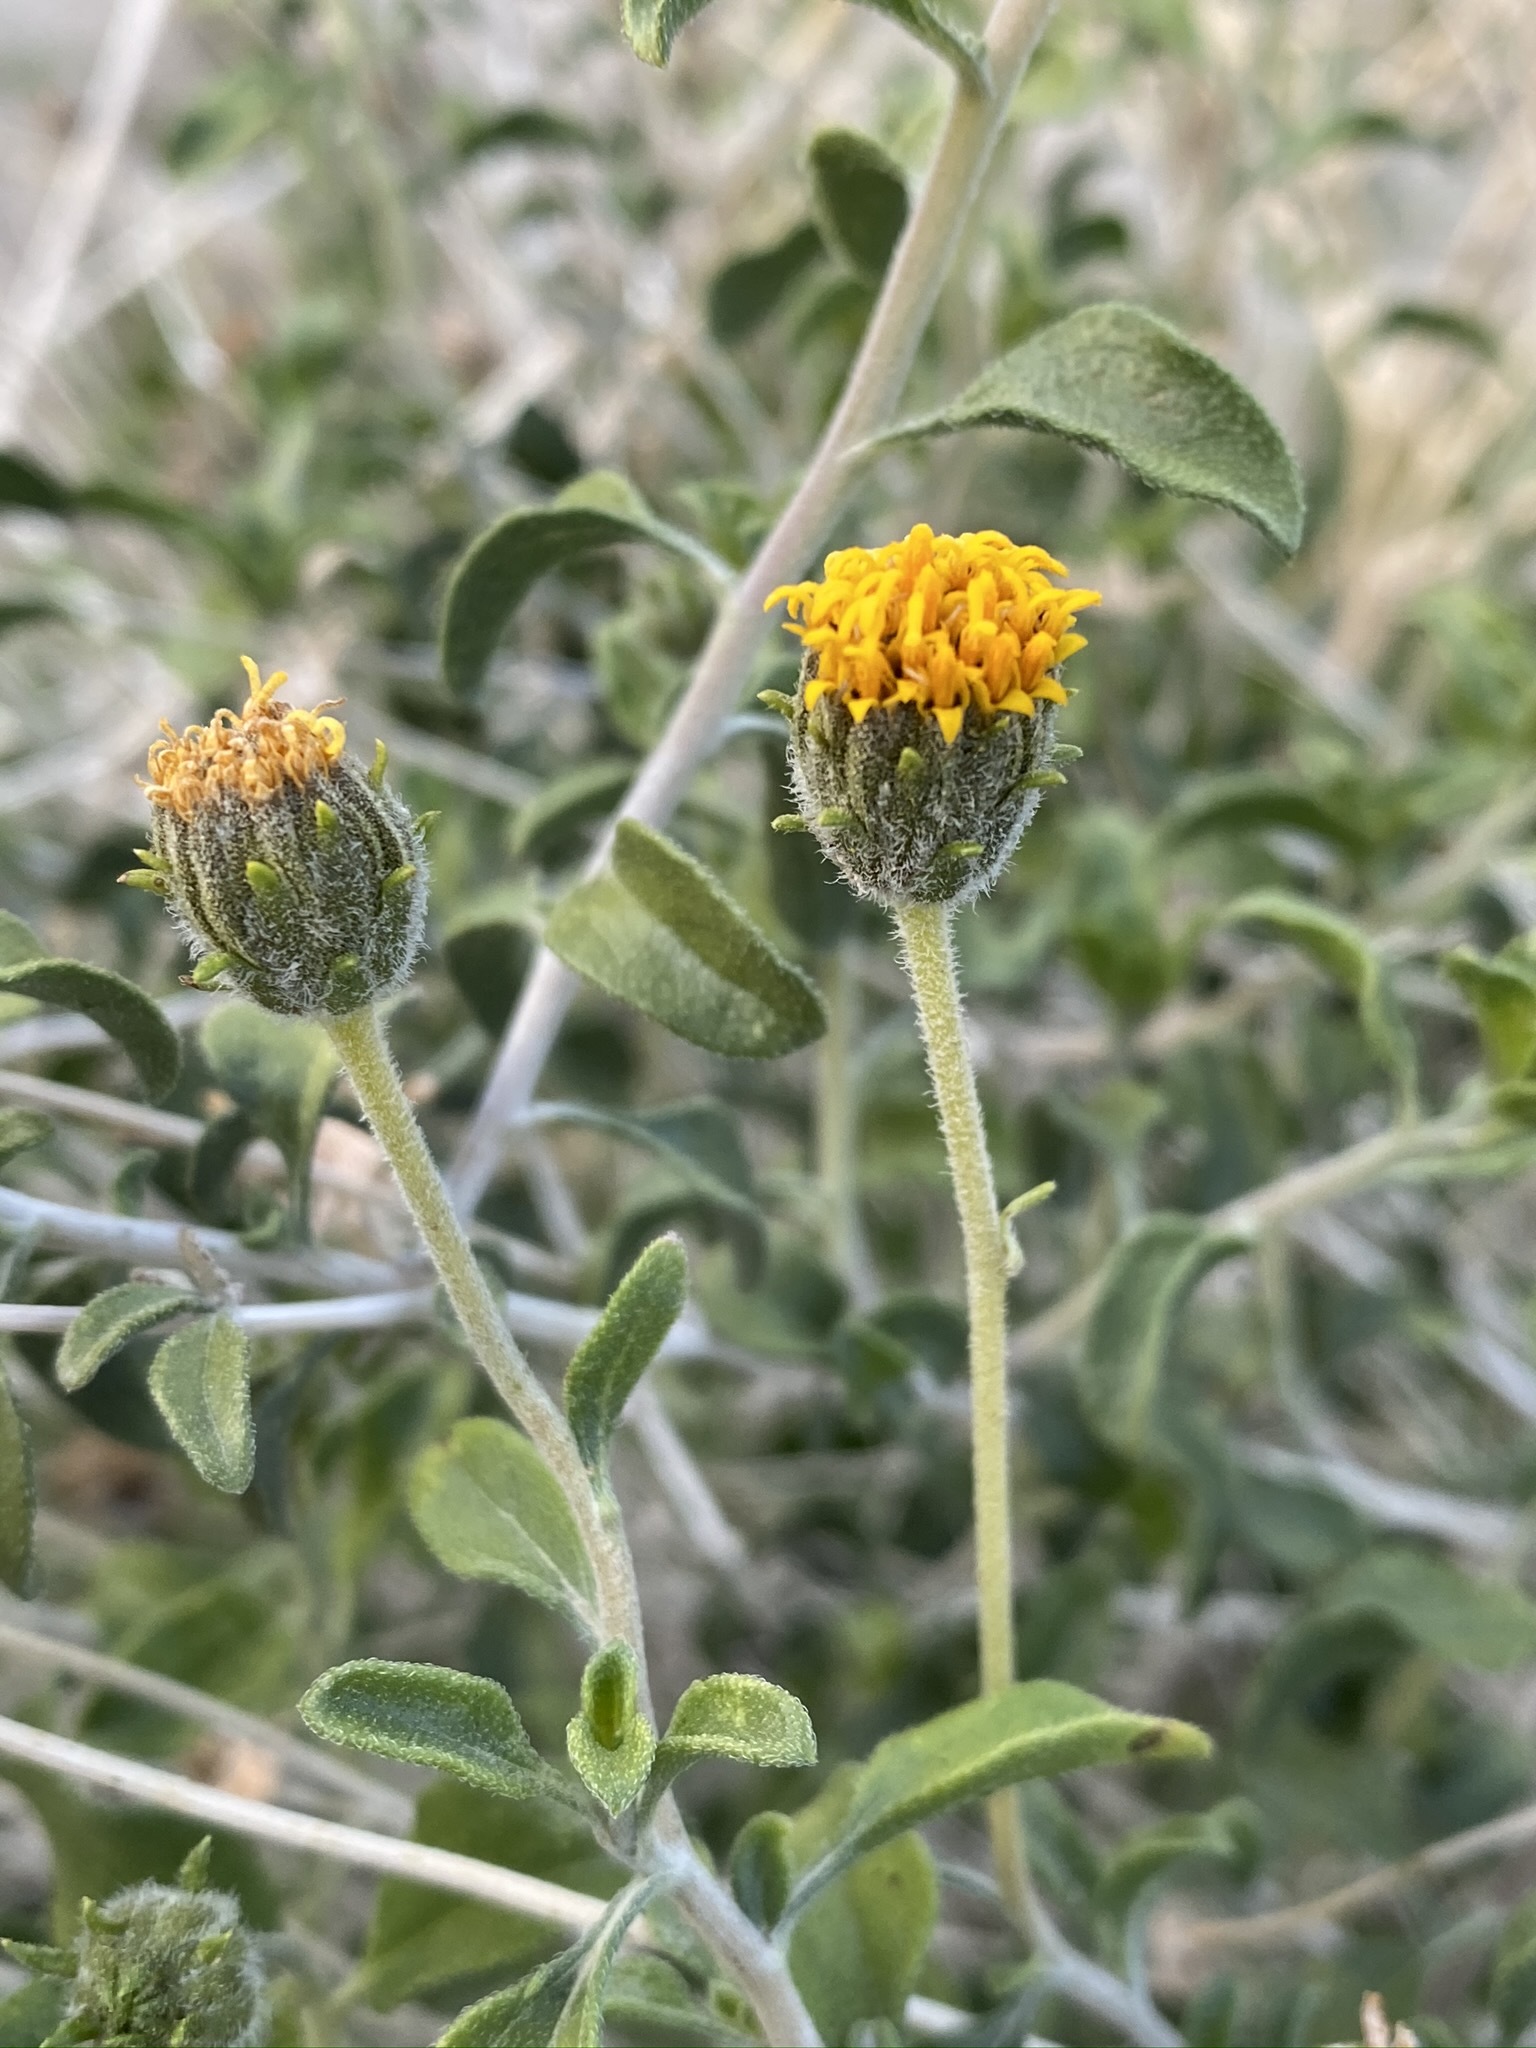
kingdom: Plantae
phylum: Tracheophyta
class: Magnoliopsida
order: Asterales
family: Asteraceae
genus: Encelia
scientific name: Encelia frutescens
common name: Bush encelia
